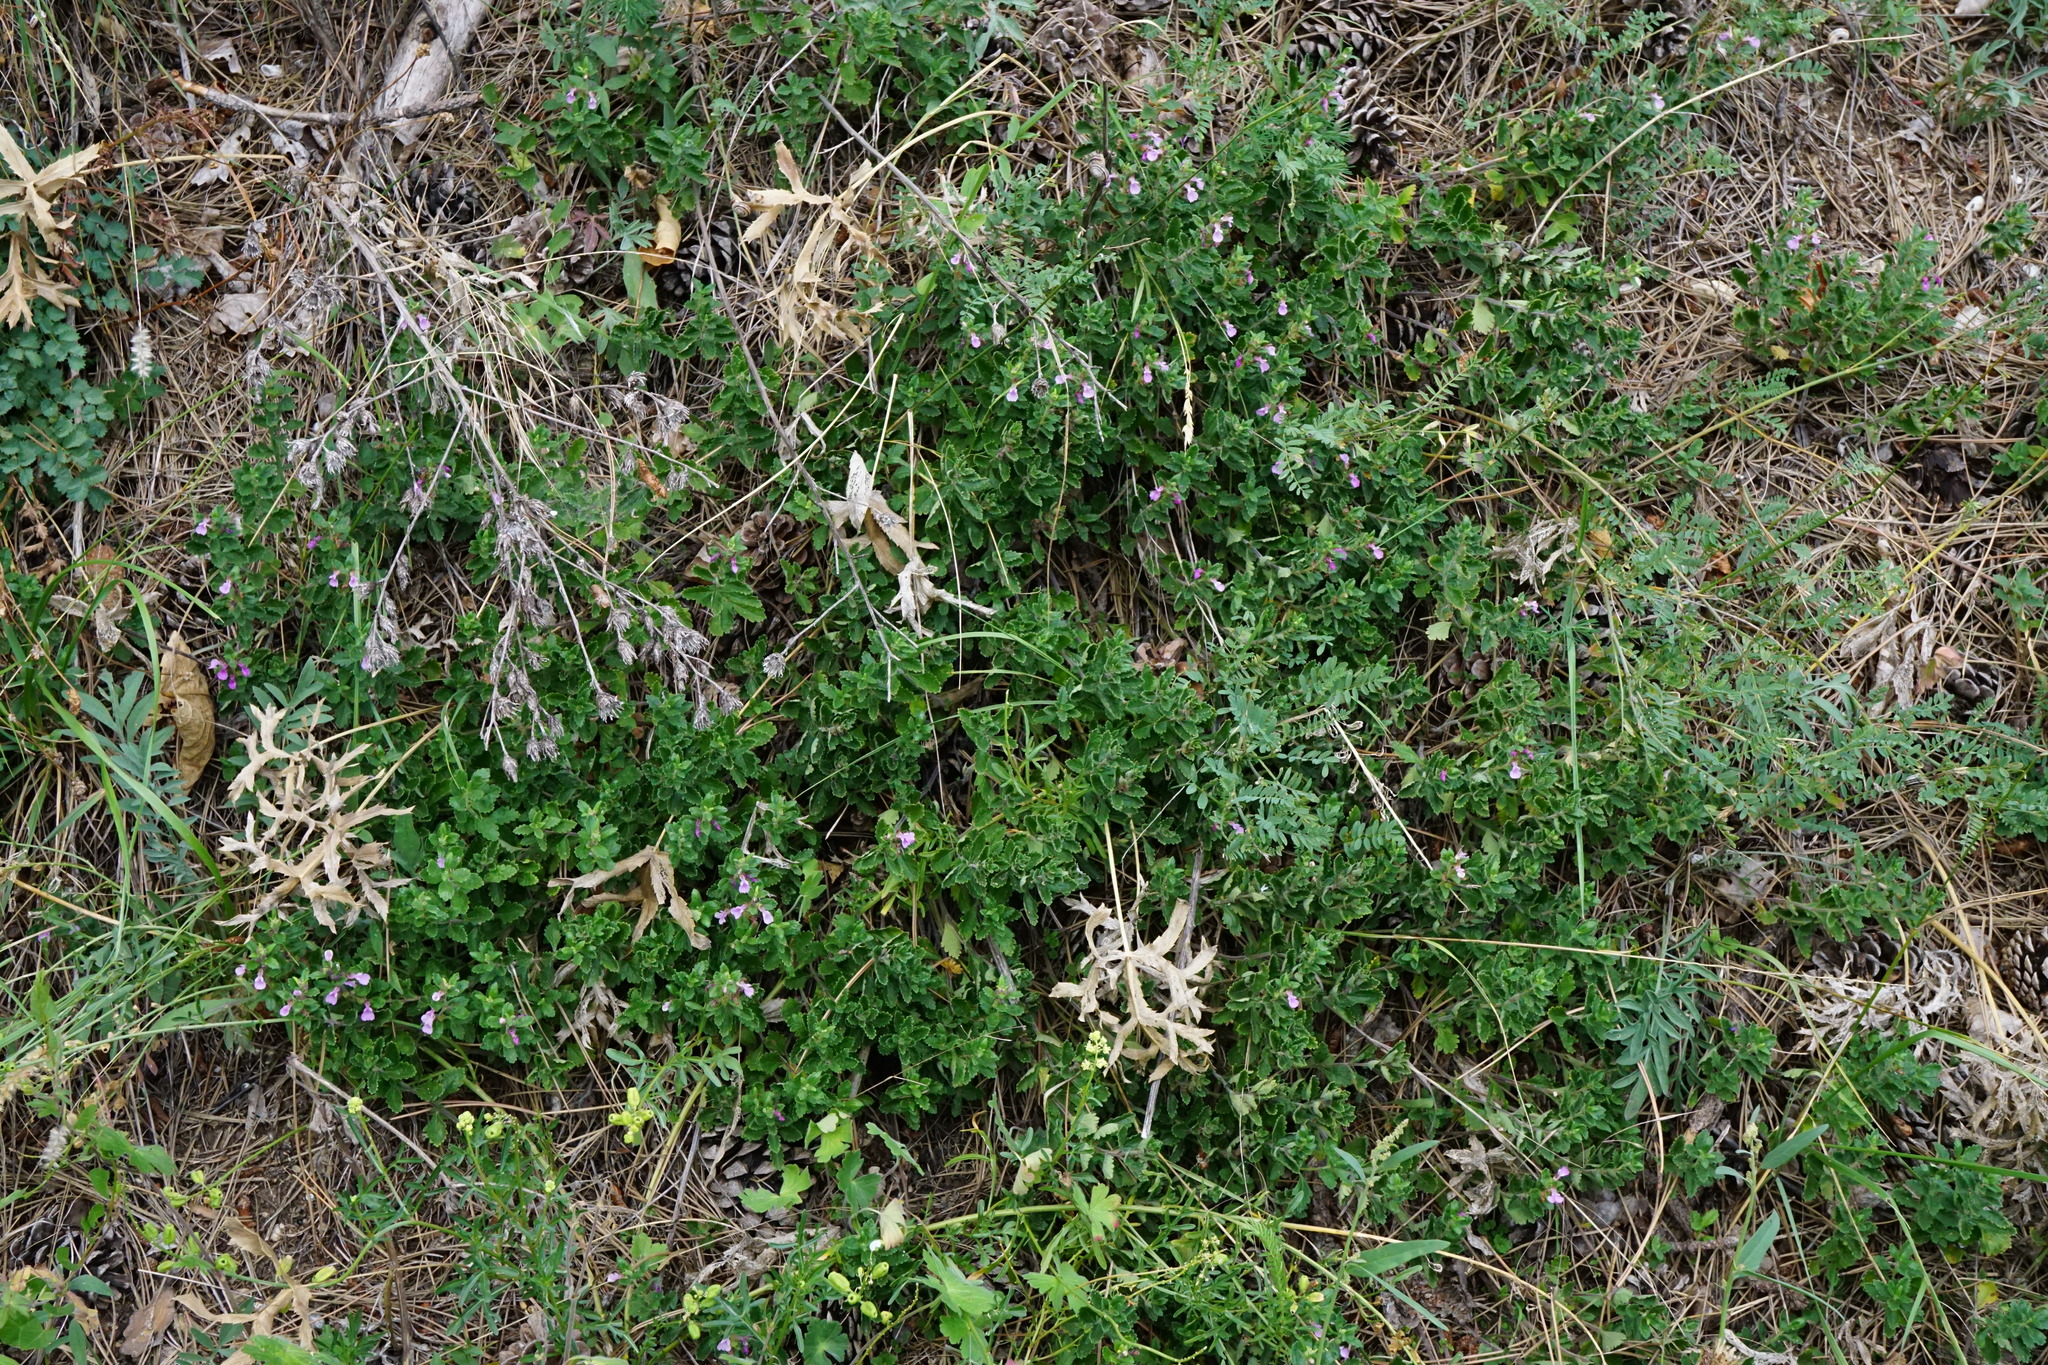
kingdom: Plantae
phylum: Tracheophyta
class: Magnoliopsida
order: Lamiales
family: Lamiaceae
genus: Teucrium
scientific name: Teucrium chamaedrys
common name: Wall germander
